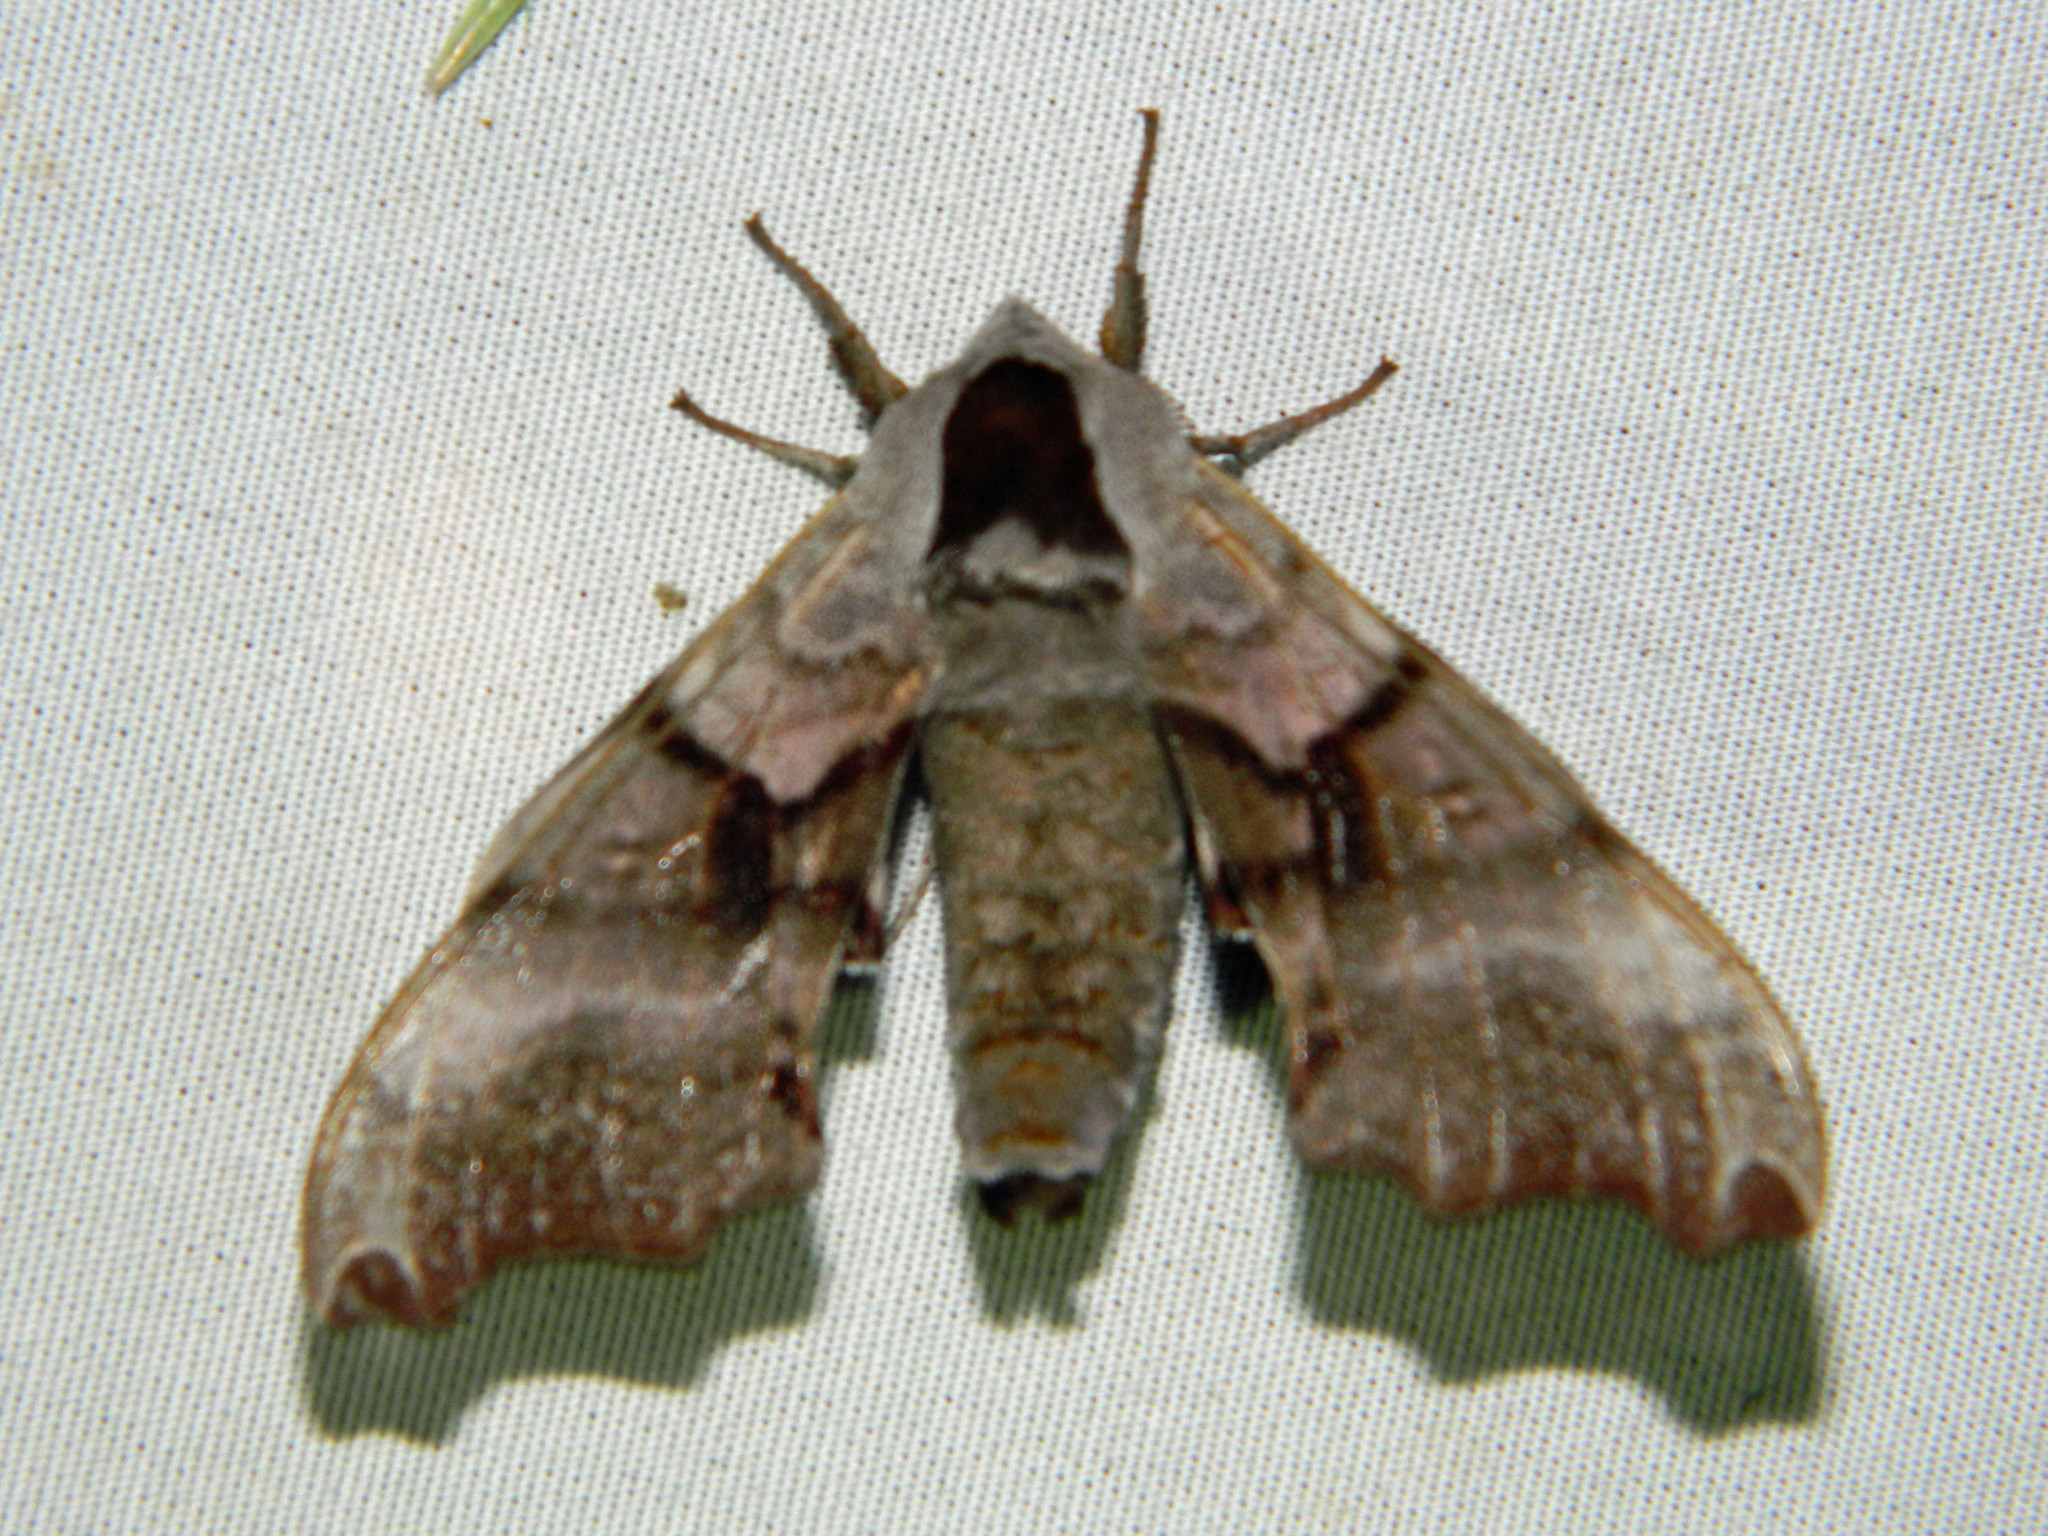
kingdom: Animalia
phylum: Arthropoda
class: Insecta
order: Lepidoptera
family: Sphingidae
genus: Smerinthus
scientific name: Smerinthus jamaicensis
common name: Twin spotted sphinx
